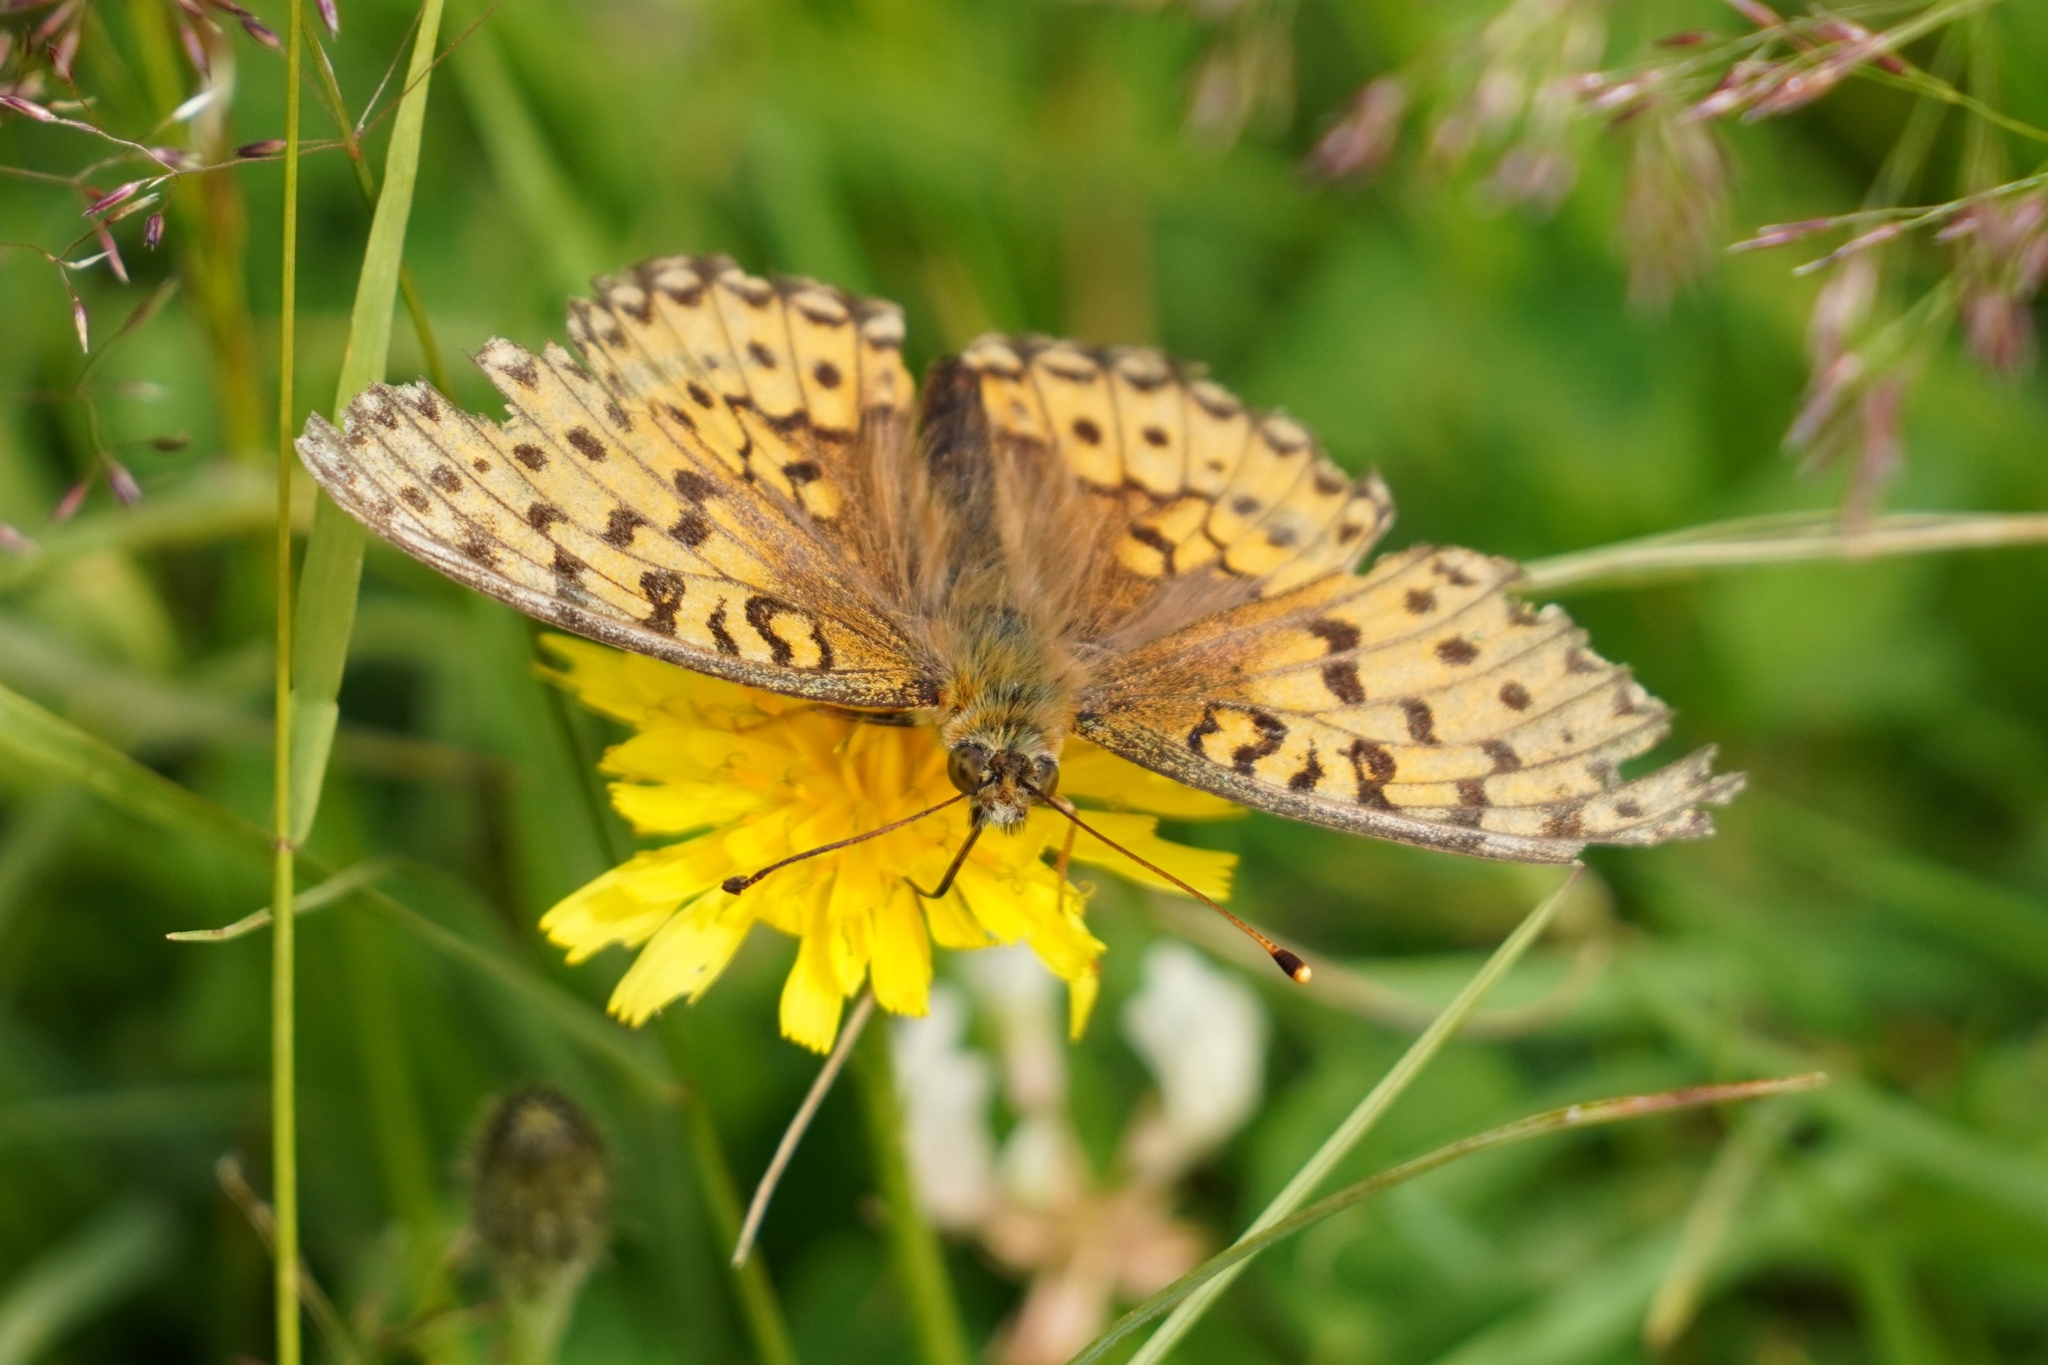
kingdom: Animalia
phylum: Arthropoda
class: Insecta
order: Lepidoptera
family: Nymphalidae
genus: Speyeria
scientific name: Speyeria aglaja
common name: Dark green fritillary
